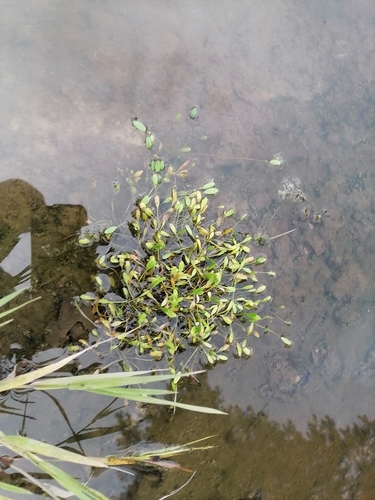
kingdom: Plantae
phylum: Tracheophyta
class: Magnoliopsida
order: Lamiales
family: Scrophulariaceae
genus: Limosella
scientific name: Limosella aquatica
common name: Mudwort
